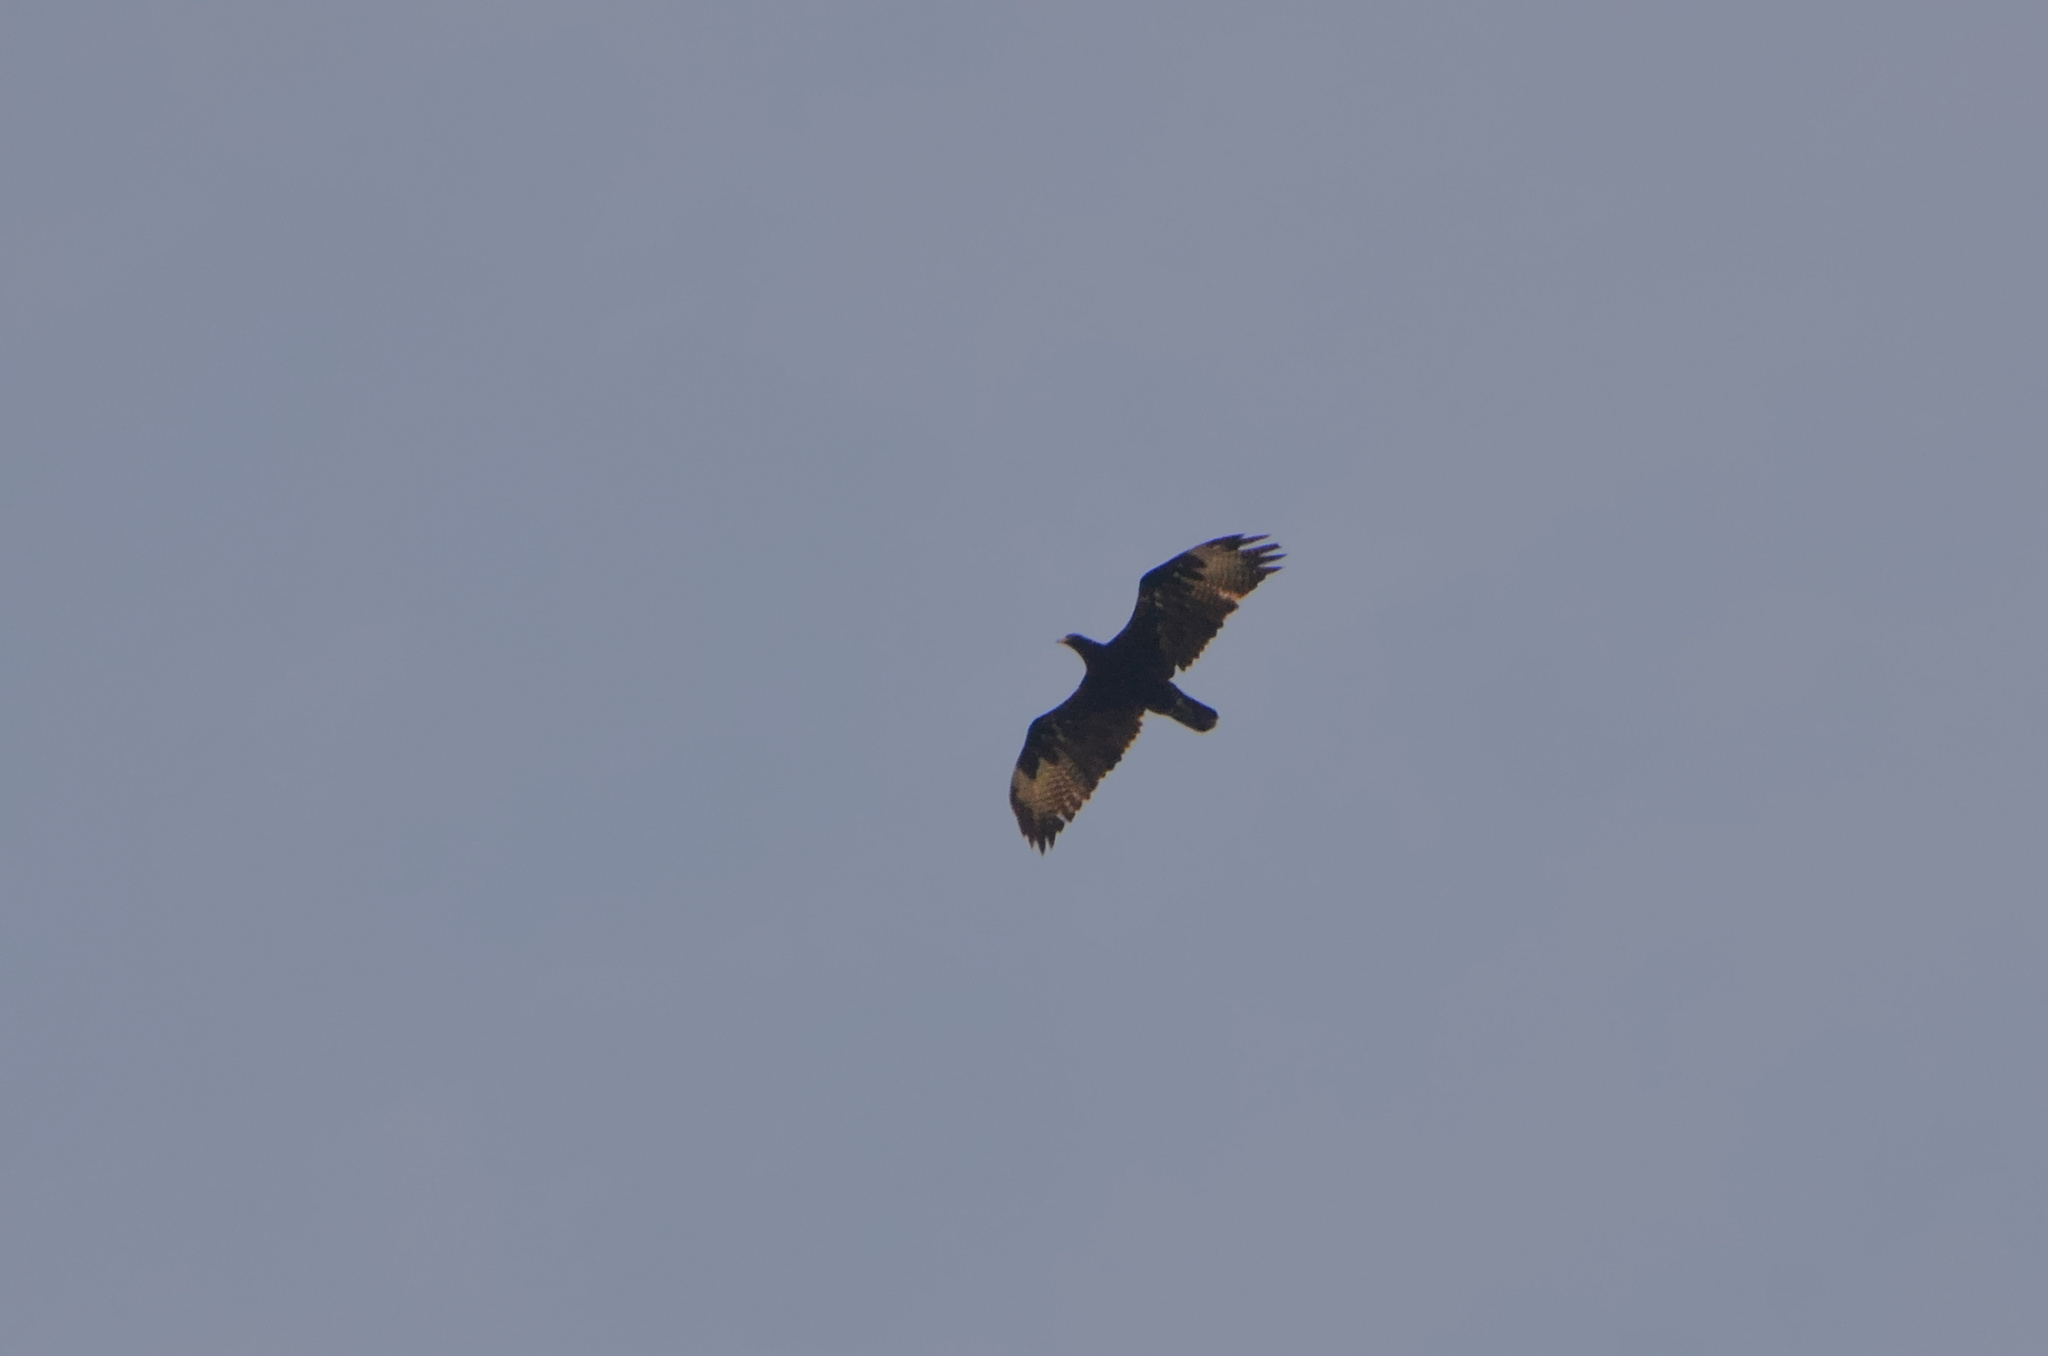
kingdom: Animalia
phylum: Chordata
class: Aves
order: Accipitriformes
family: Accipitridae
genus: Aquila
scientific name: Aquila verreauxii
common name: Verreaux's eagle
